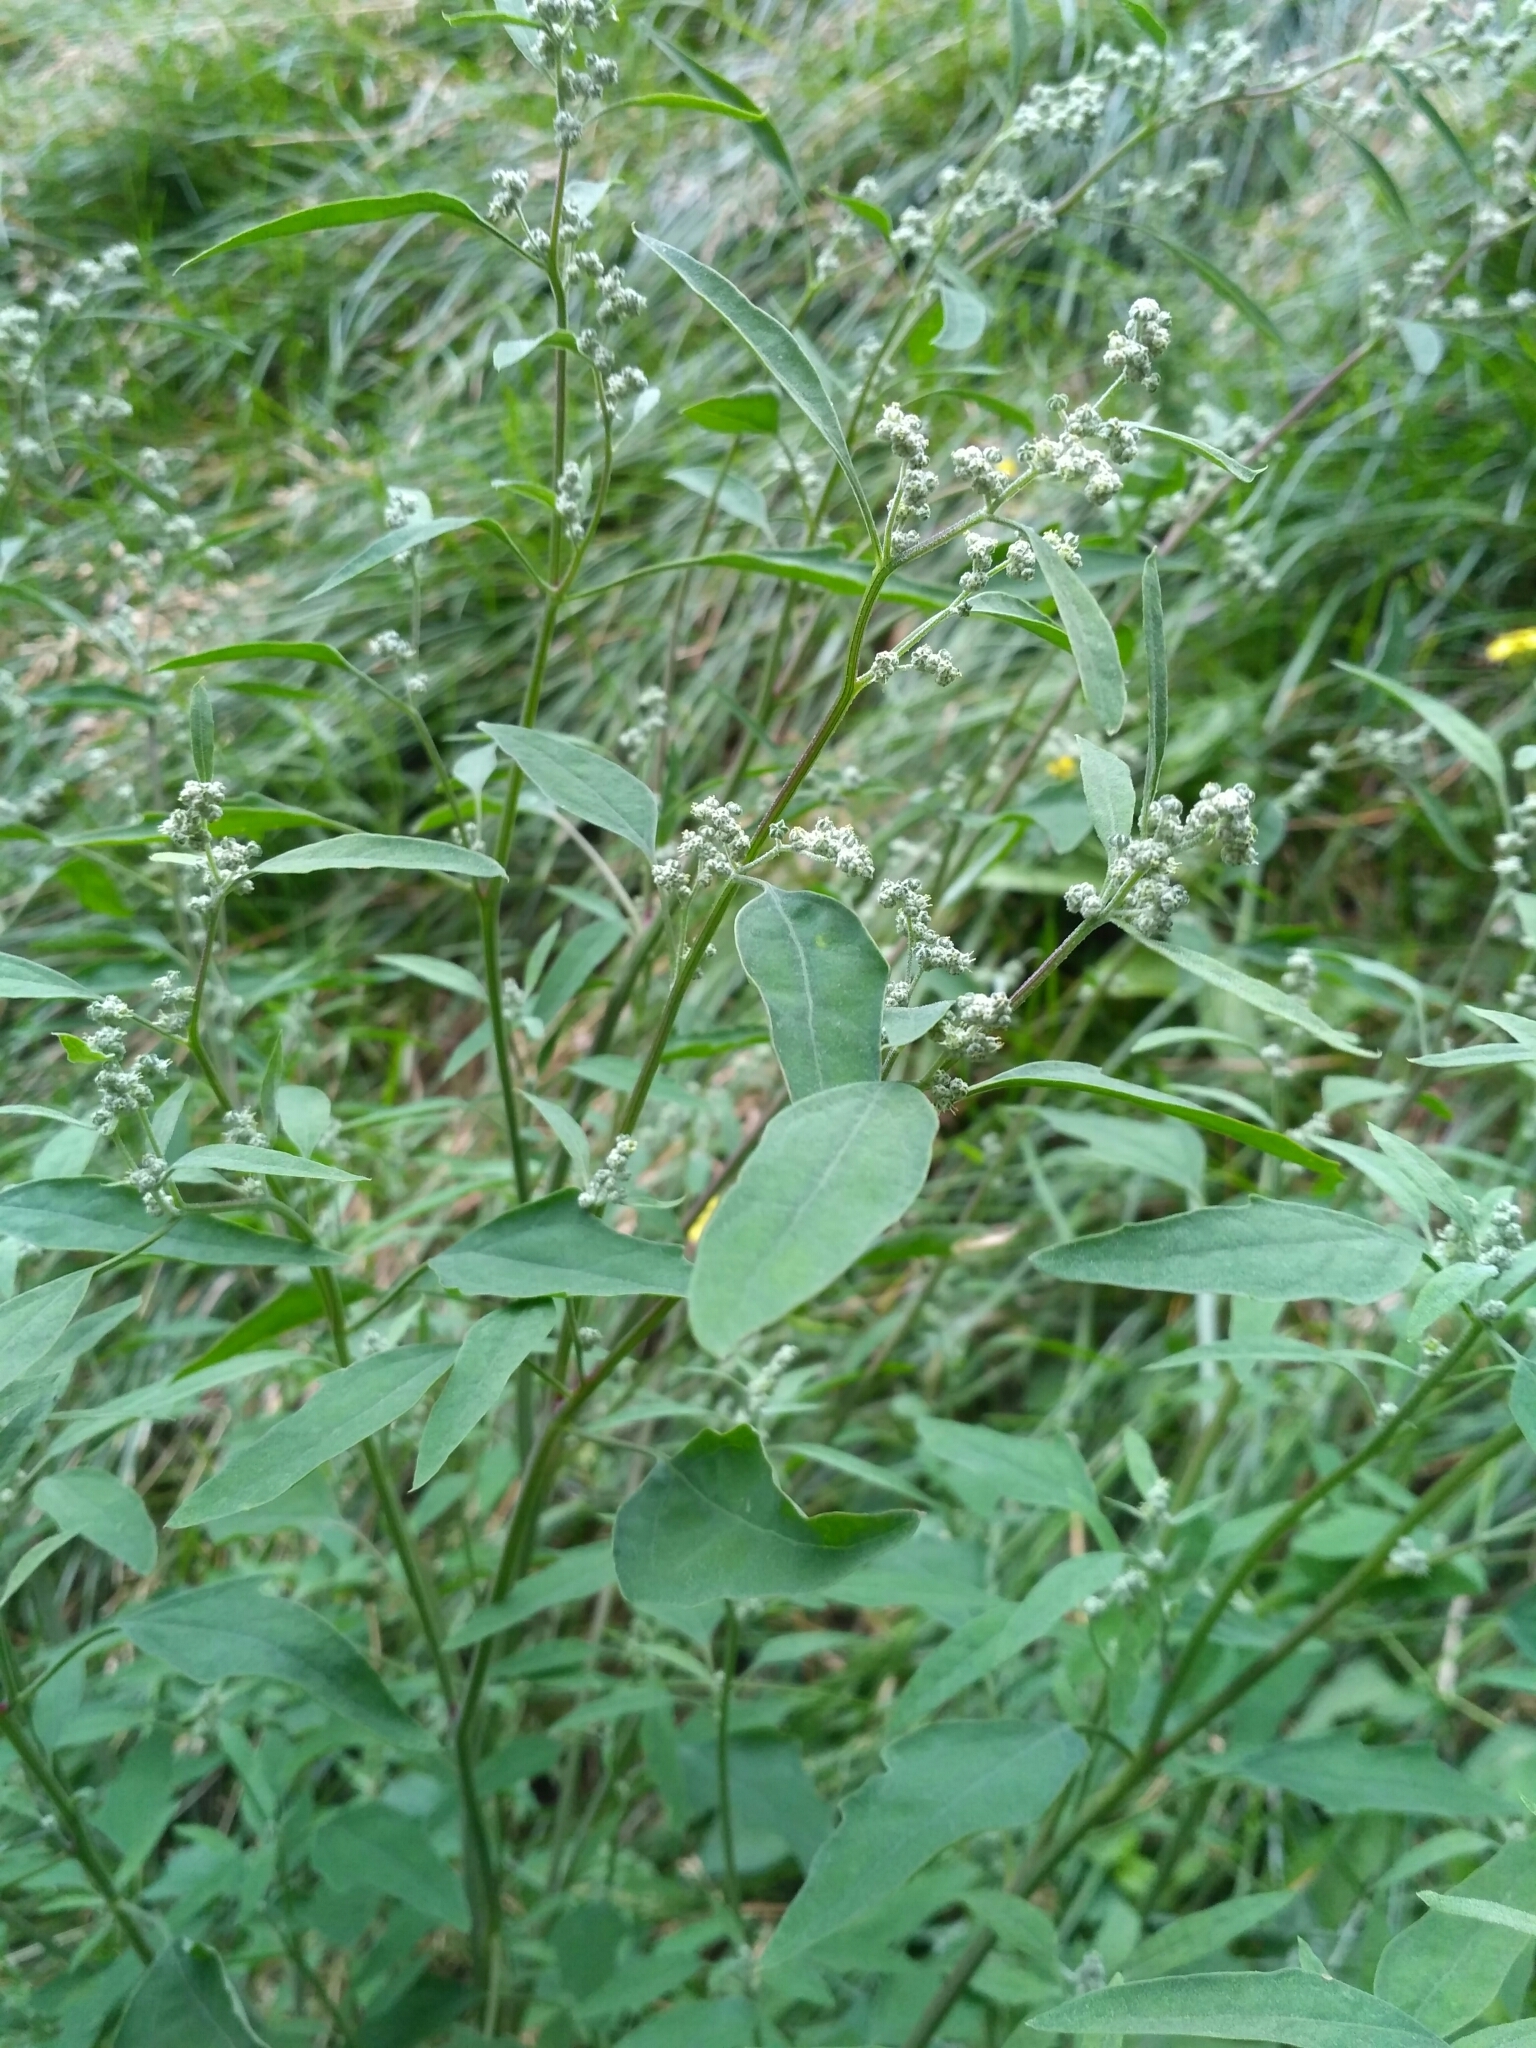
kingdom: Plantae
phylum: Tracheophyta
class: Magnoliopsida
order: Caryophyllales
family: Amaranthaceae
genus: Chenopodium
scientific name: Chenopodium album
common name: Fat-hen
